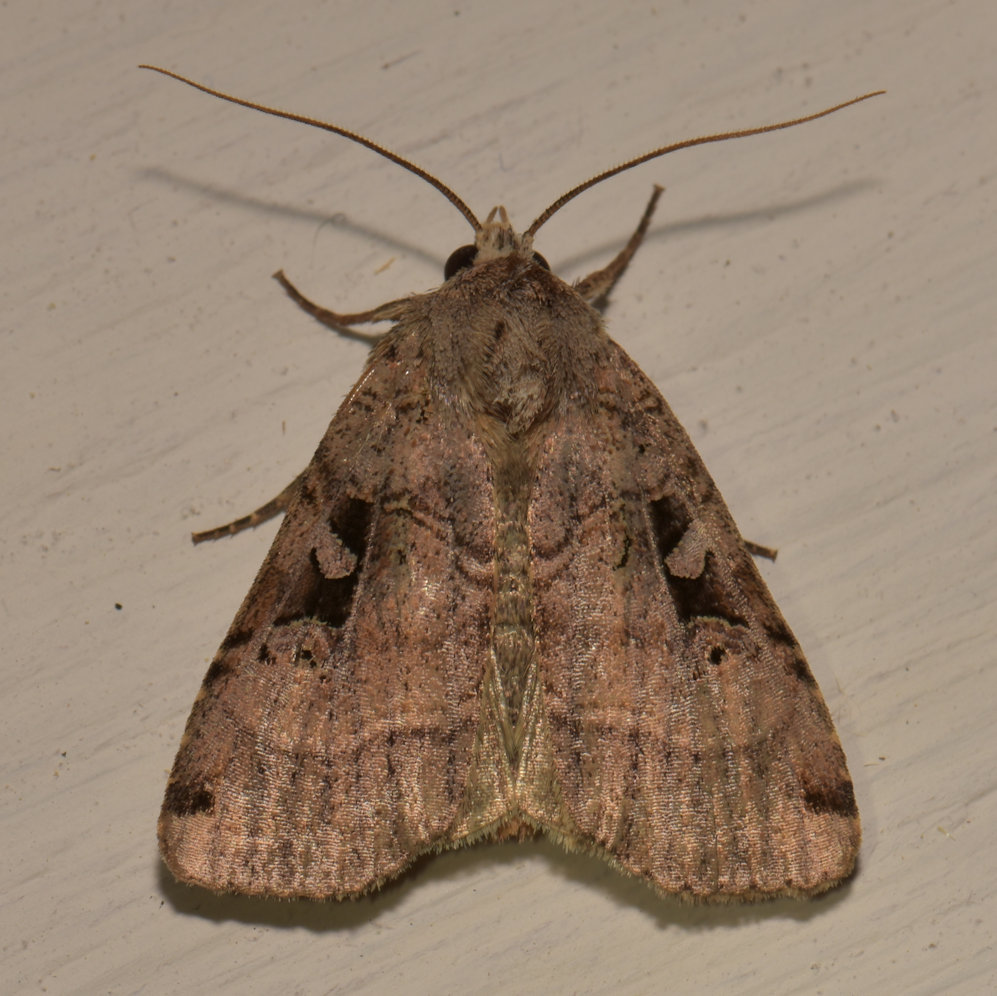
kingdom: Animalia
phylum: Arthropoda
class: Insecta
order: Lepidoptera
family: Noctuidae
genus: Xestia
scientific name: Xestia normaniana
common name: Norman's dart moth
